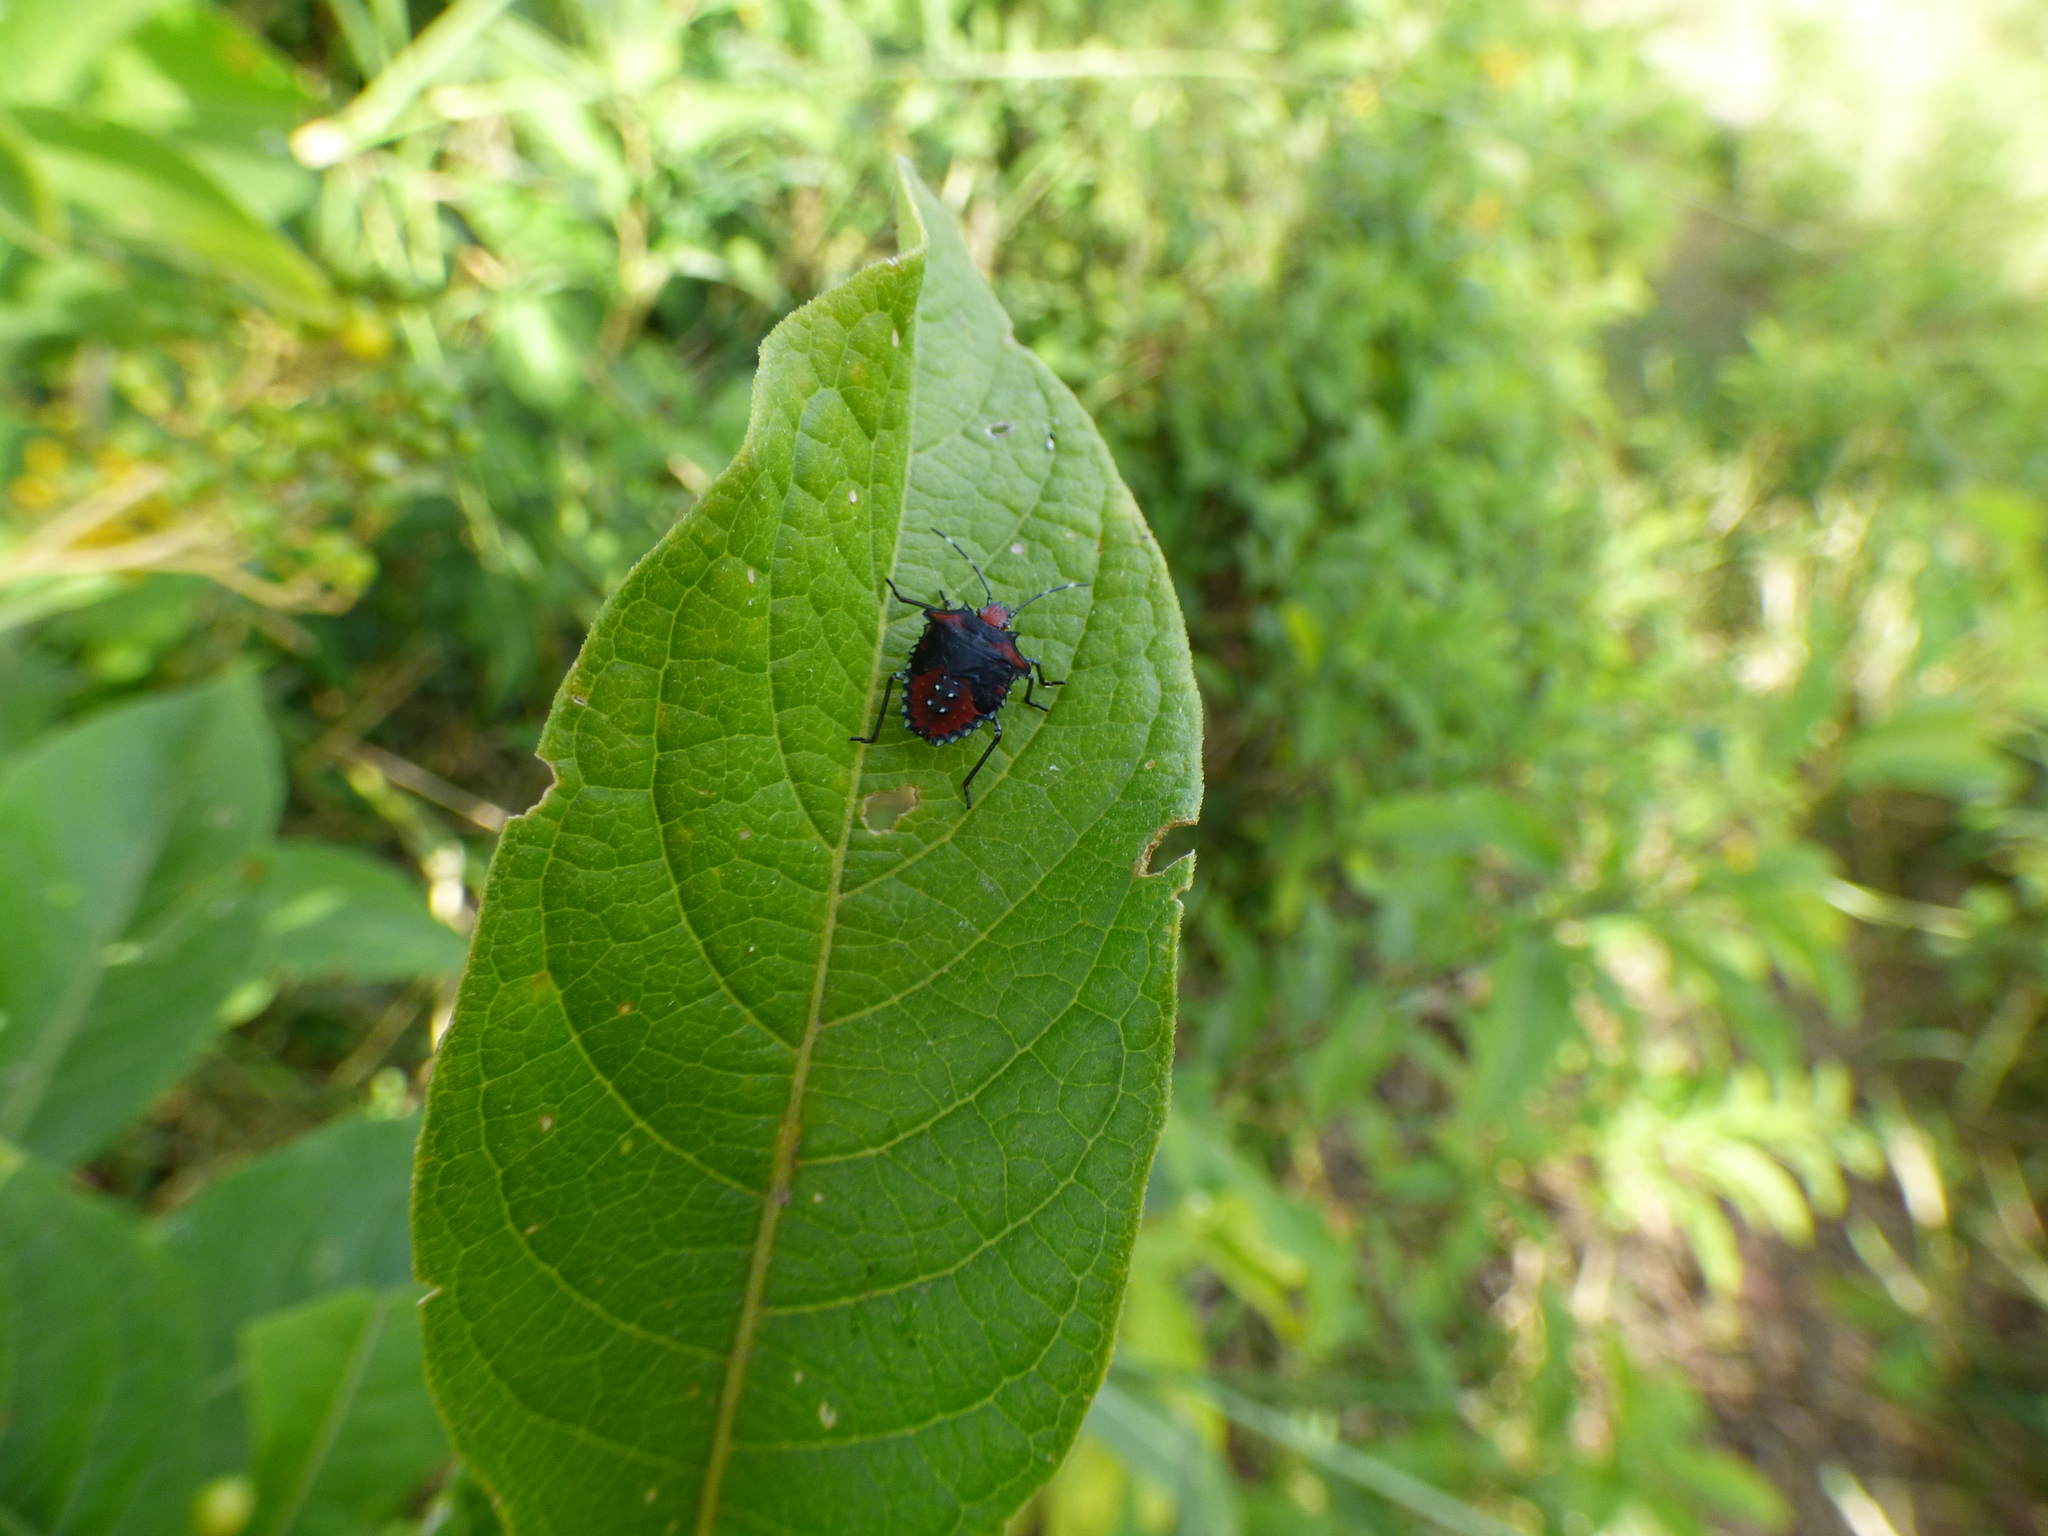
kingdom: Animalia
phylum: Arthropoda
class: Insecta
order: Hemiptera
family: Pentatomidae
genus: Arvelius
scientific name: Arvelius albopunctatus
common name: Tomato stink bug
